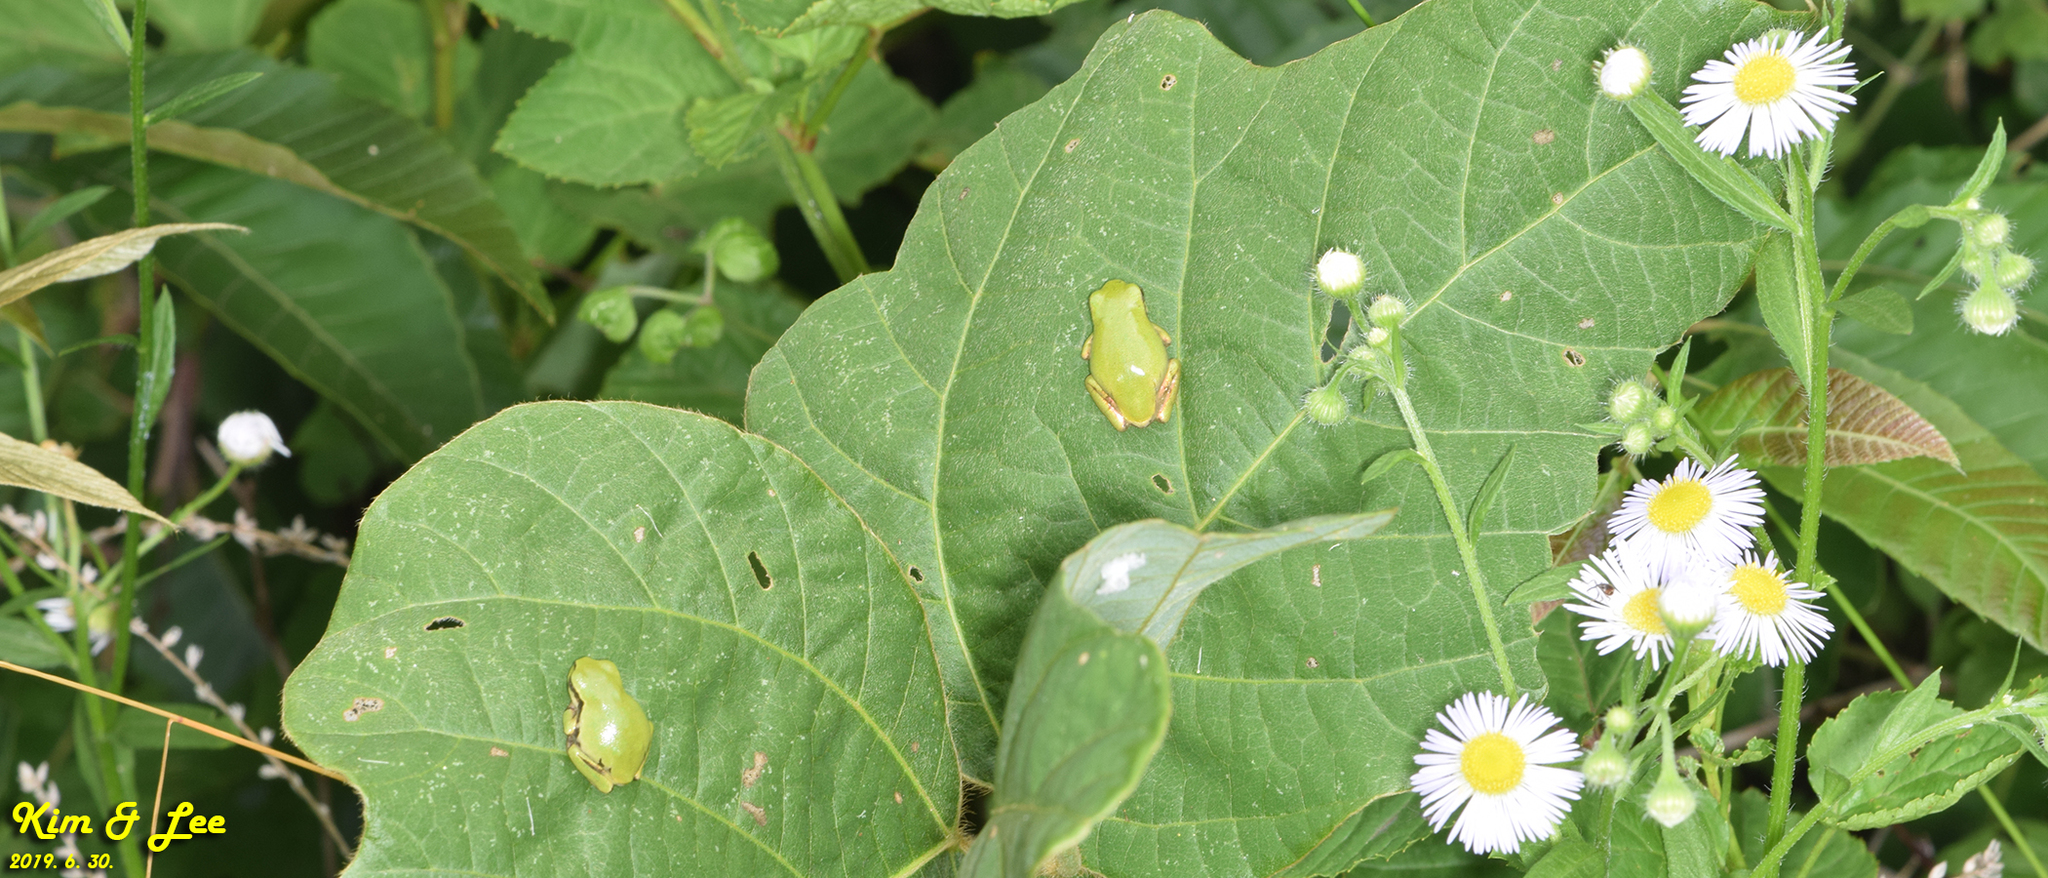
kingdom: Animalia
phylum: Chordata
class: Amphibia
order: Anura
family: Hylidae
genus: Dryophytes
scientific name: Dryophytes japonicus
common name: Japanese treefrog
